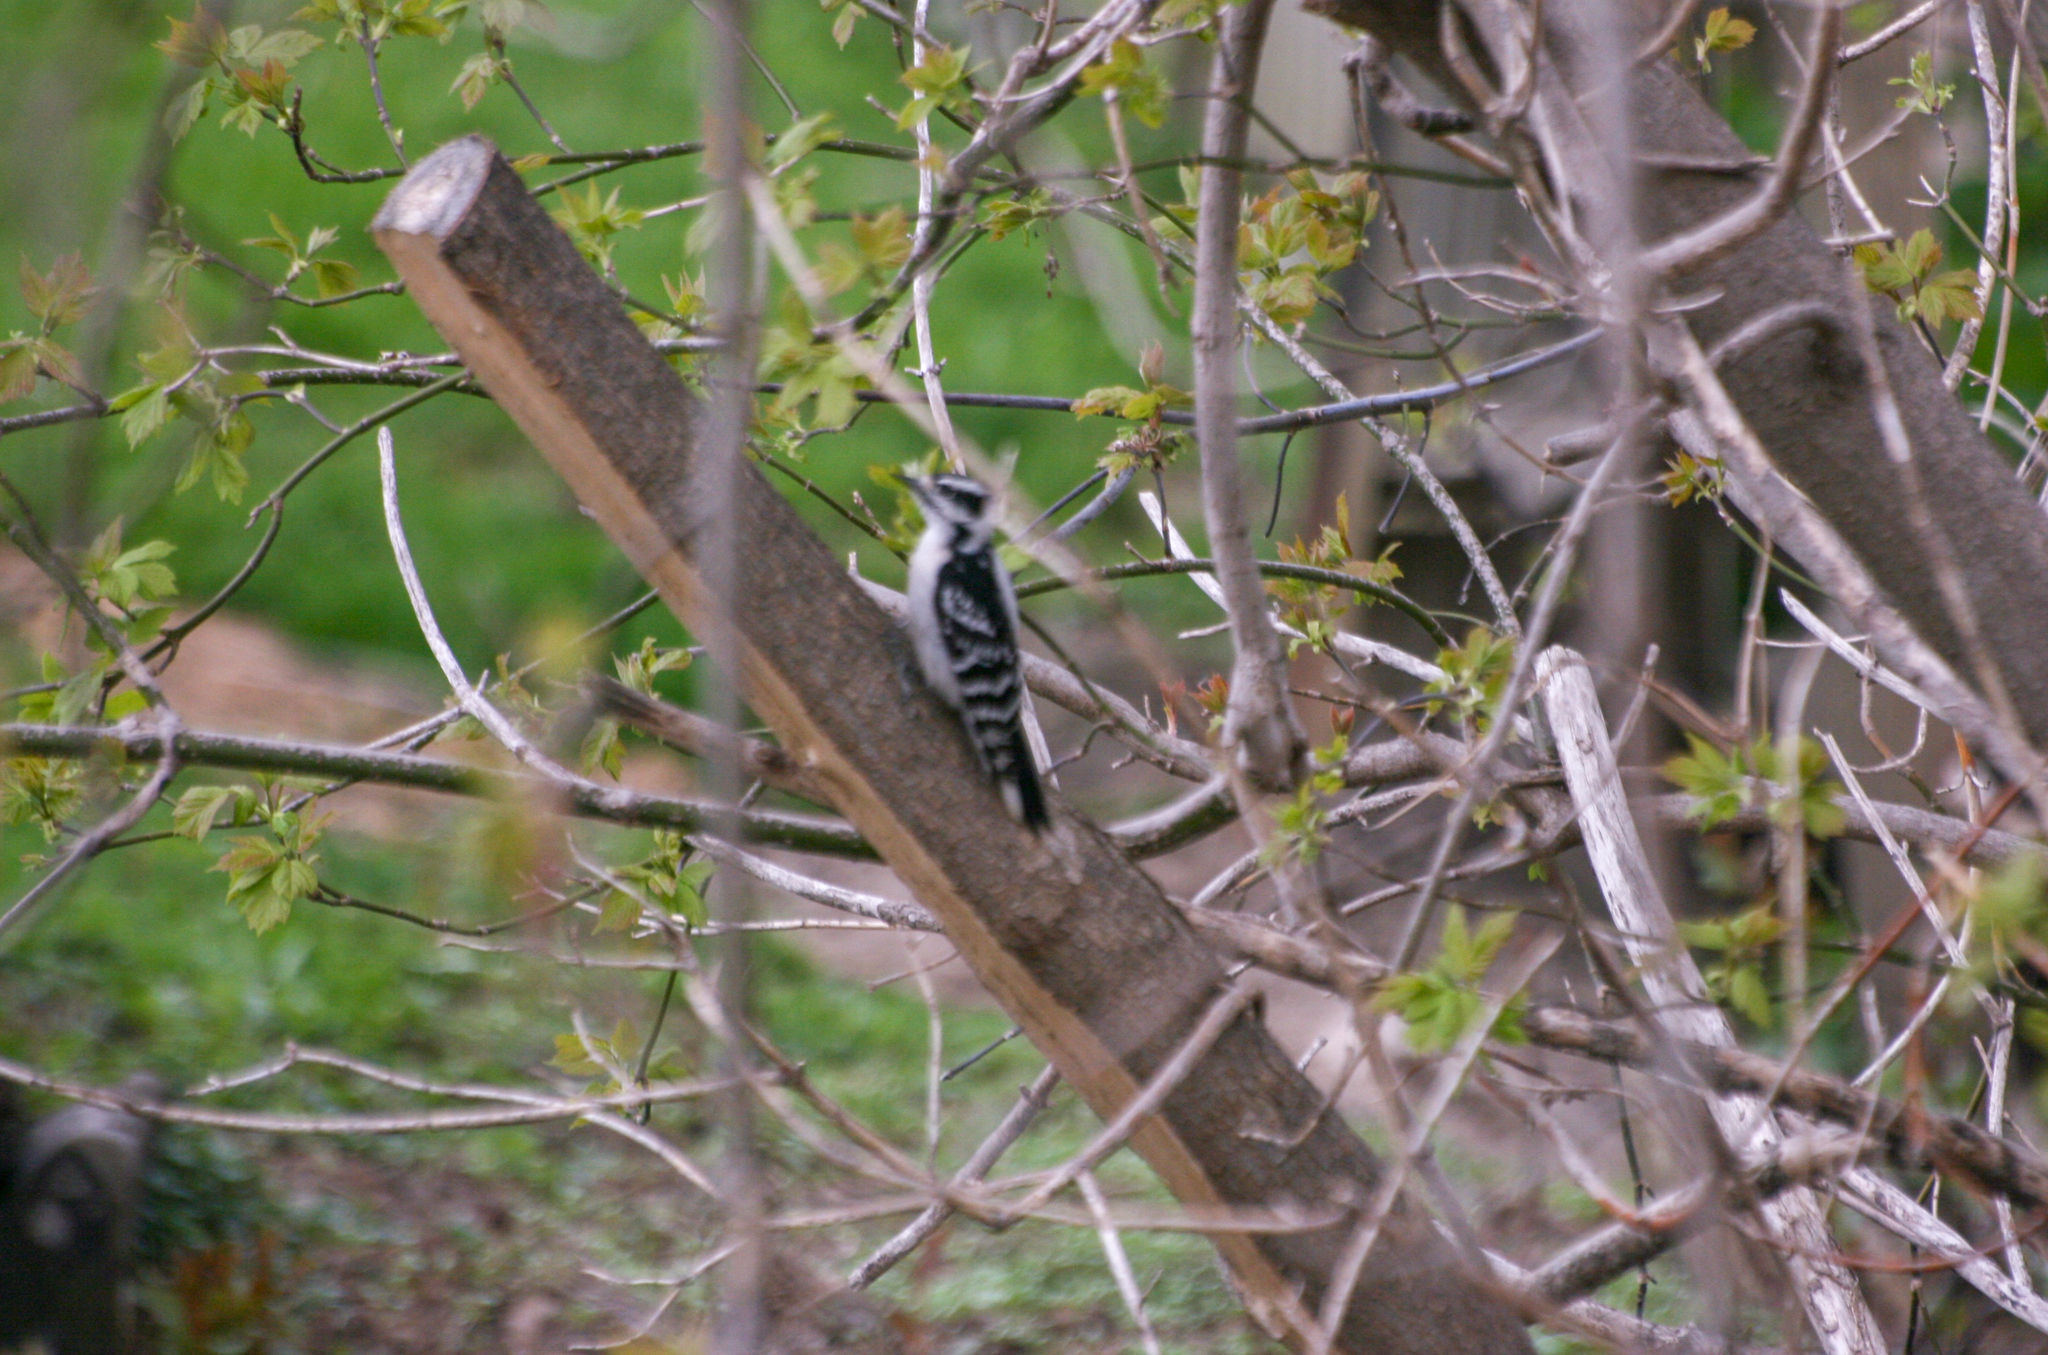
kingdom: Animalia
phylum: Chordata
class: Aves
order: Piciformes
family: Picidae
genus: Dryobates
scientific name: Dryobates pubescens
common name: Downy woodpecker
